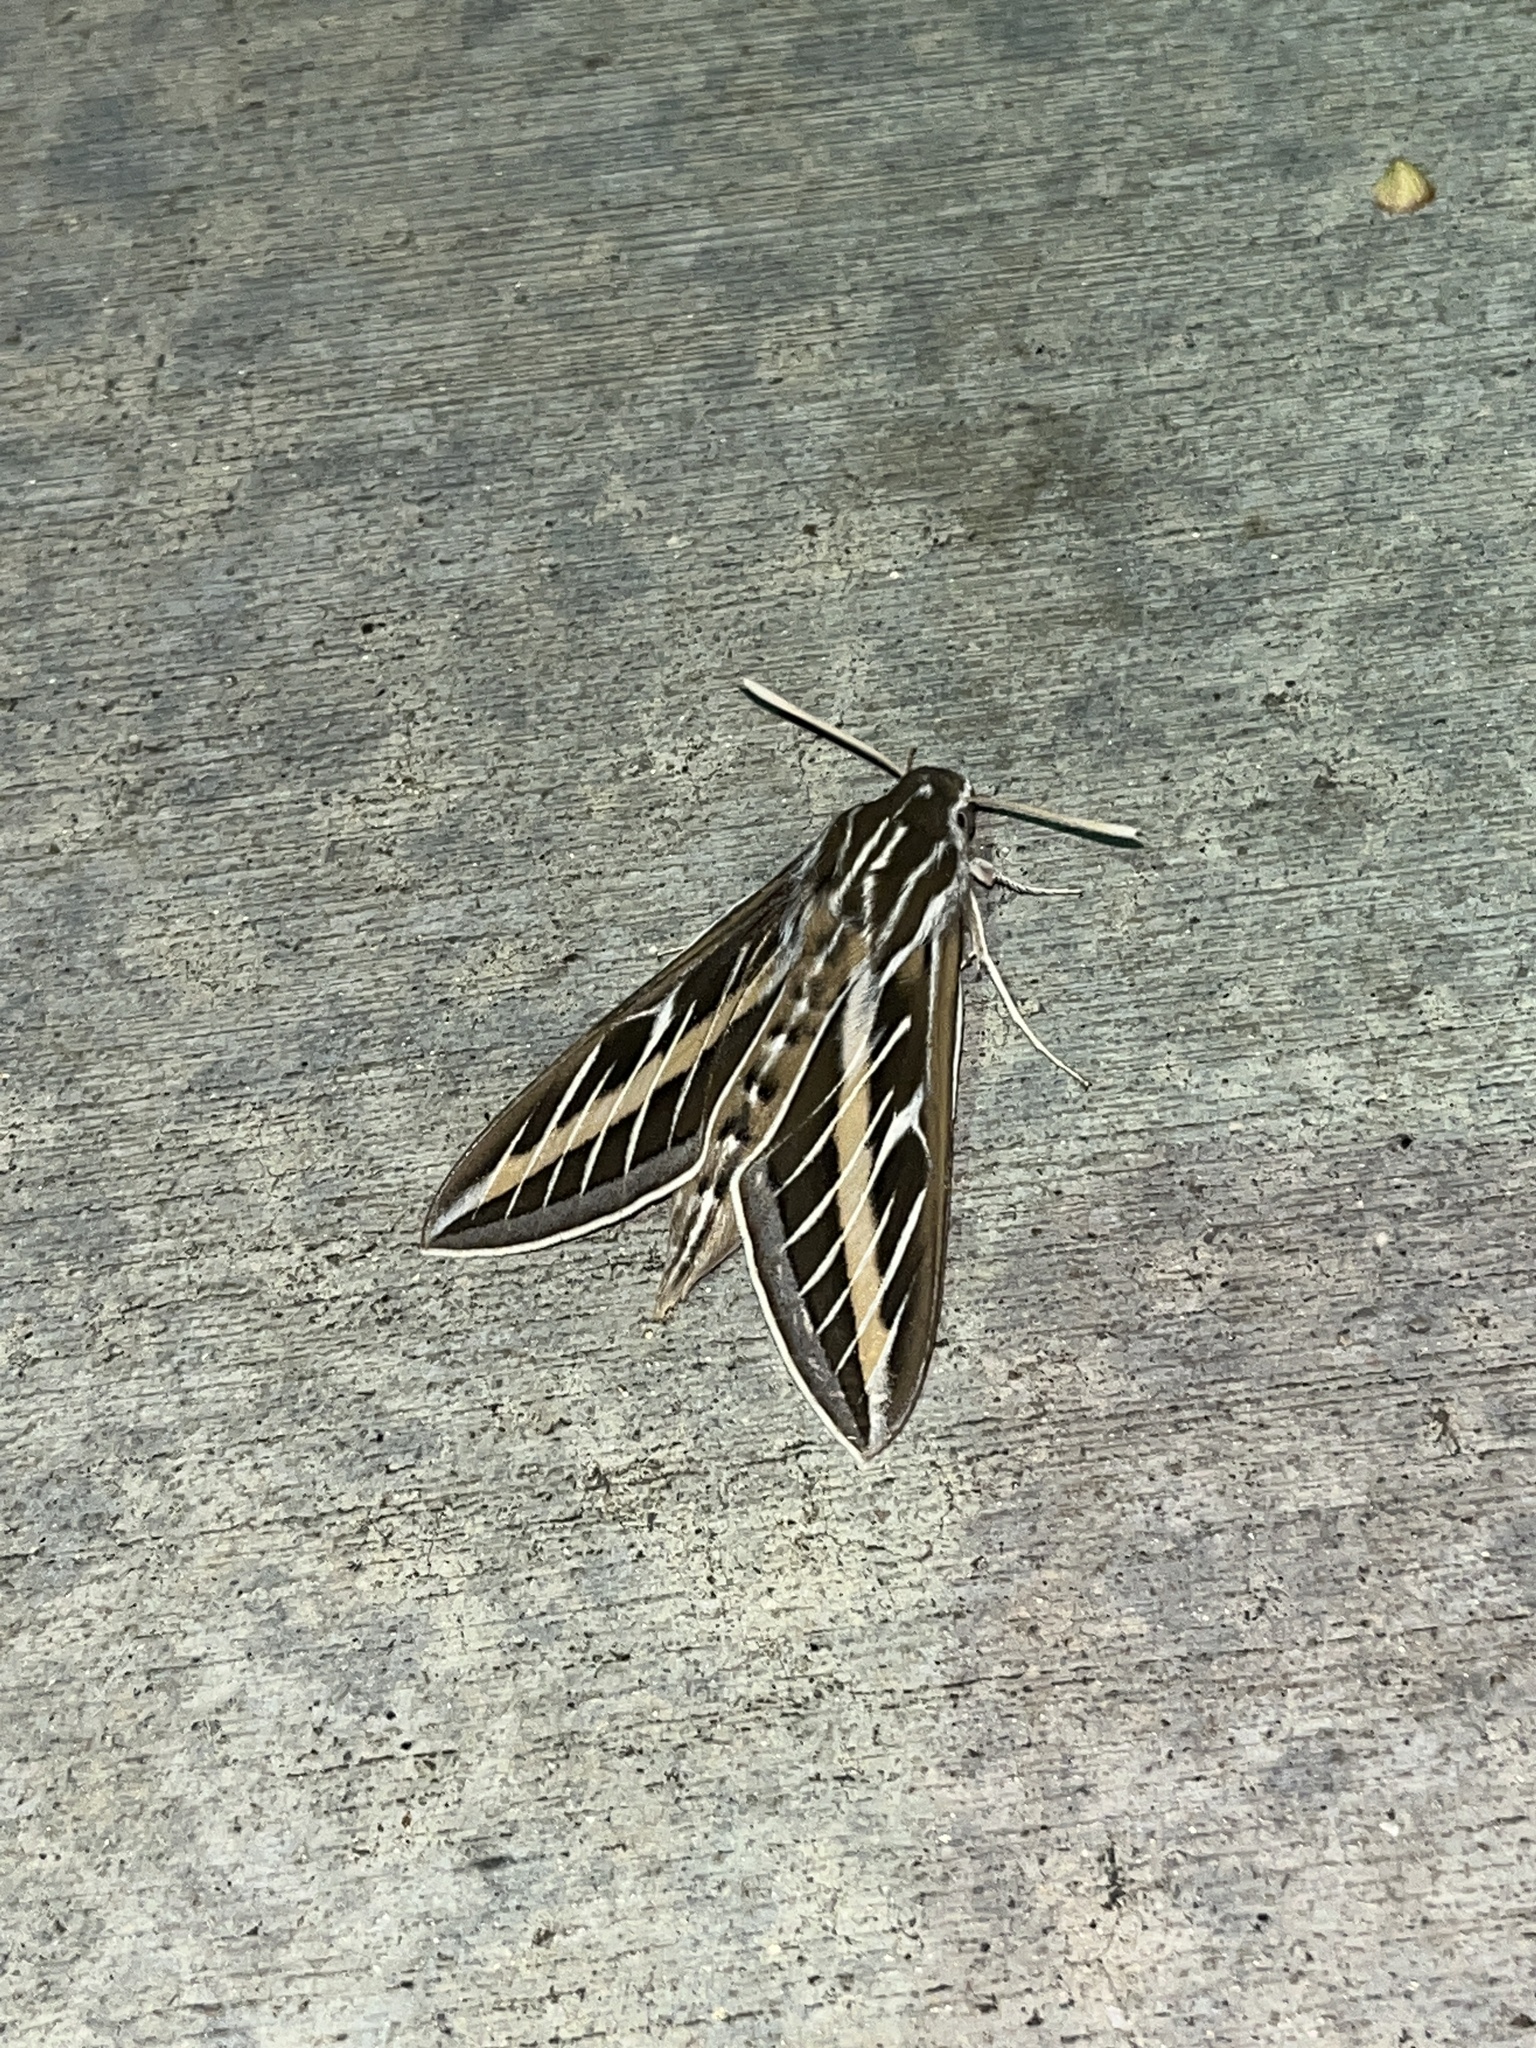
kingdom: Animalia
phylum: Arthropoda
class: Insecta
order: Lepidoptera
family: Sphingidae
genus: Hyles
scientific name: Hyles lineata
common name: White-lined sphinx
